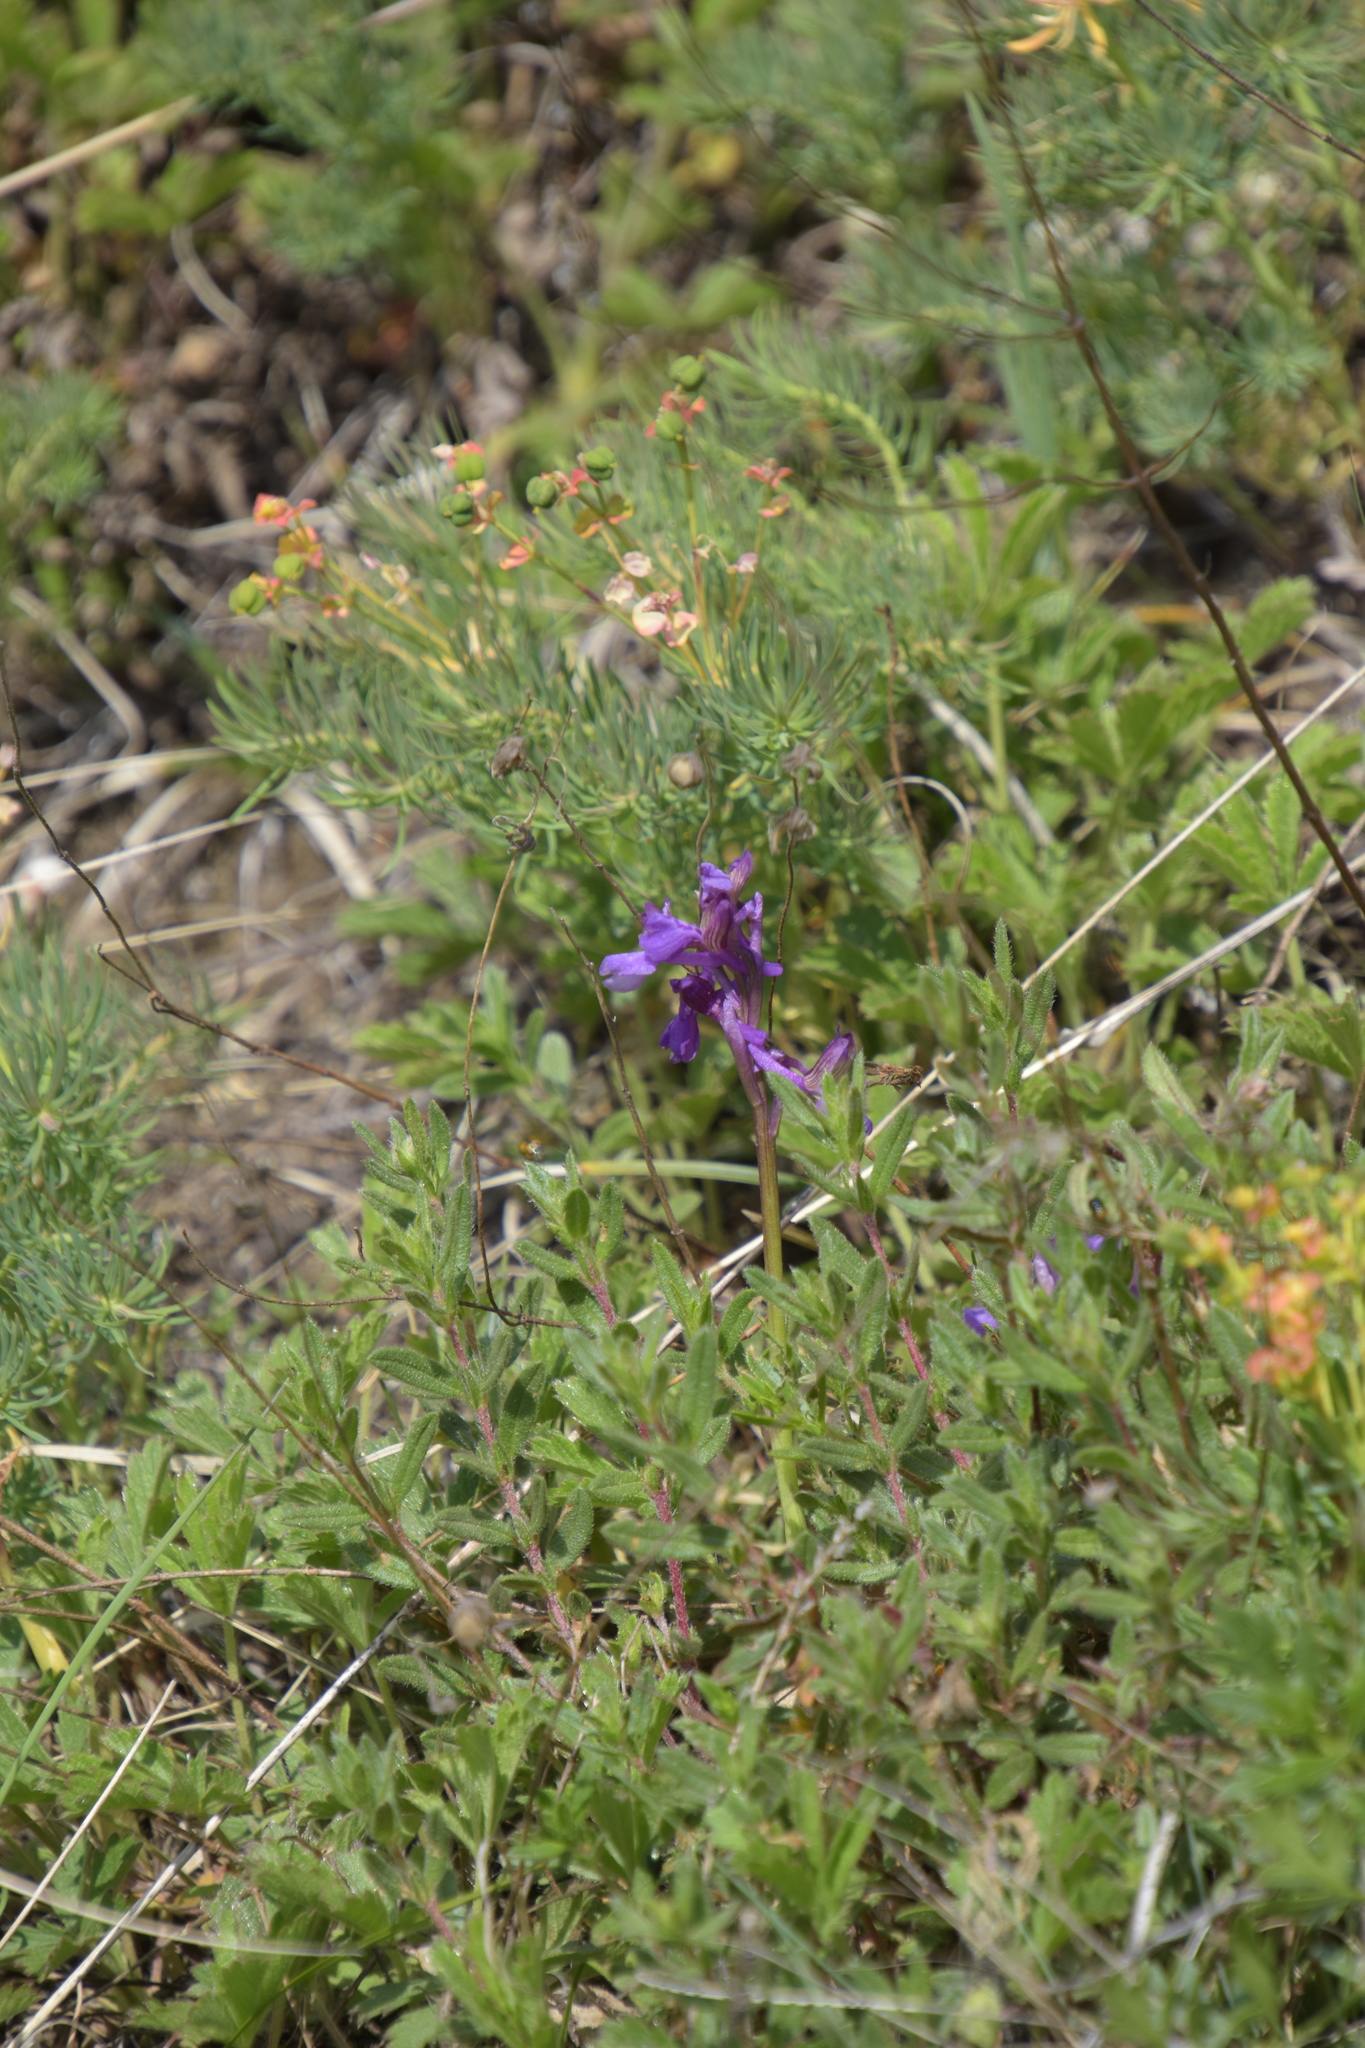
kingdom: Plantae
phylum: Tracheophyta
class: Liliopsida
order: Asparagales
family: Orchidaceae
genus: Anacamptis
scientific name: Anacamptis morio
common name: Green-winged orchid
